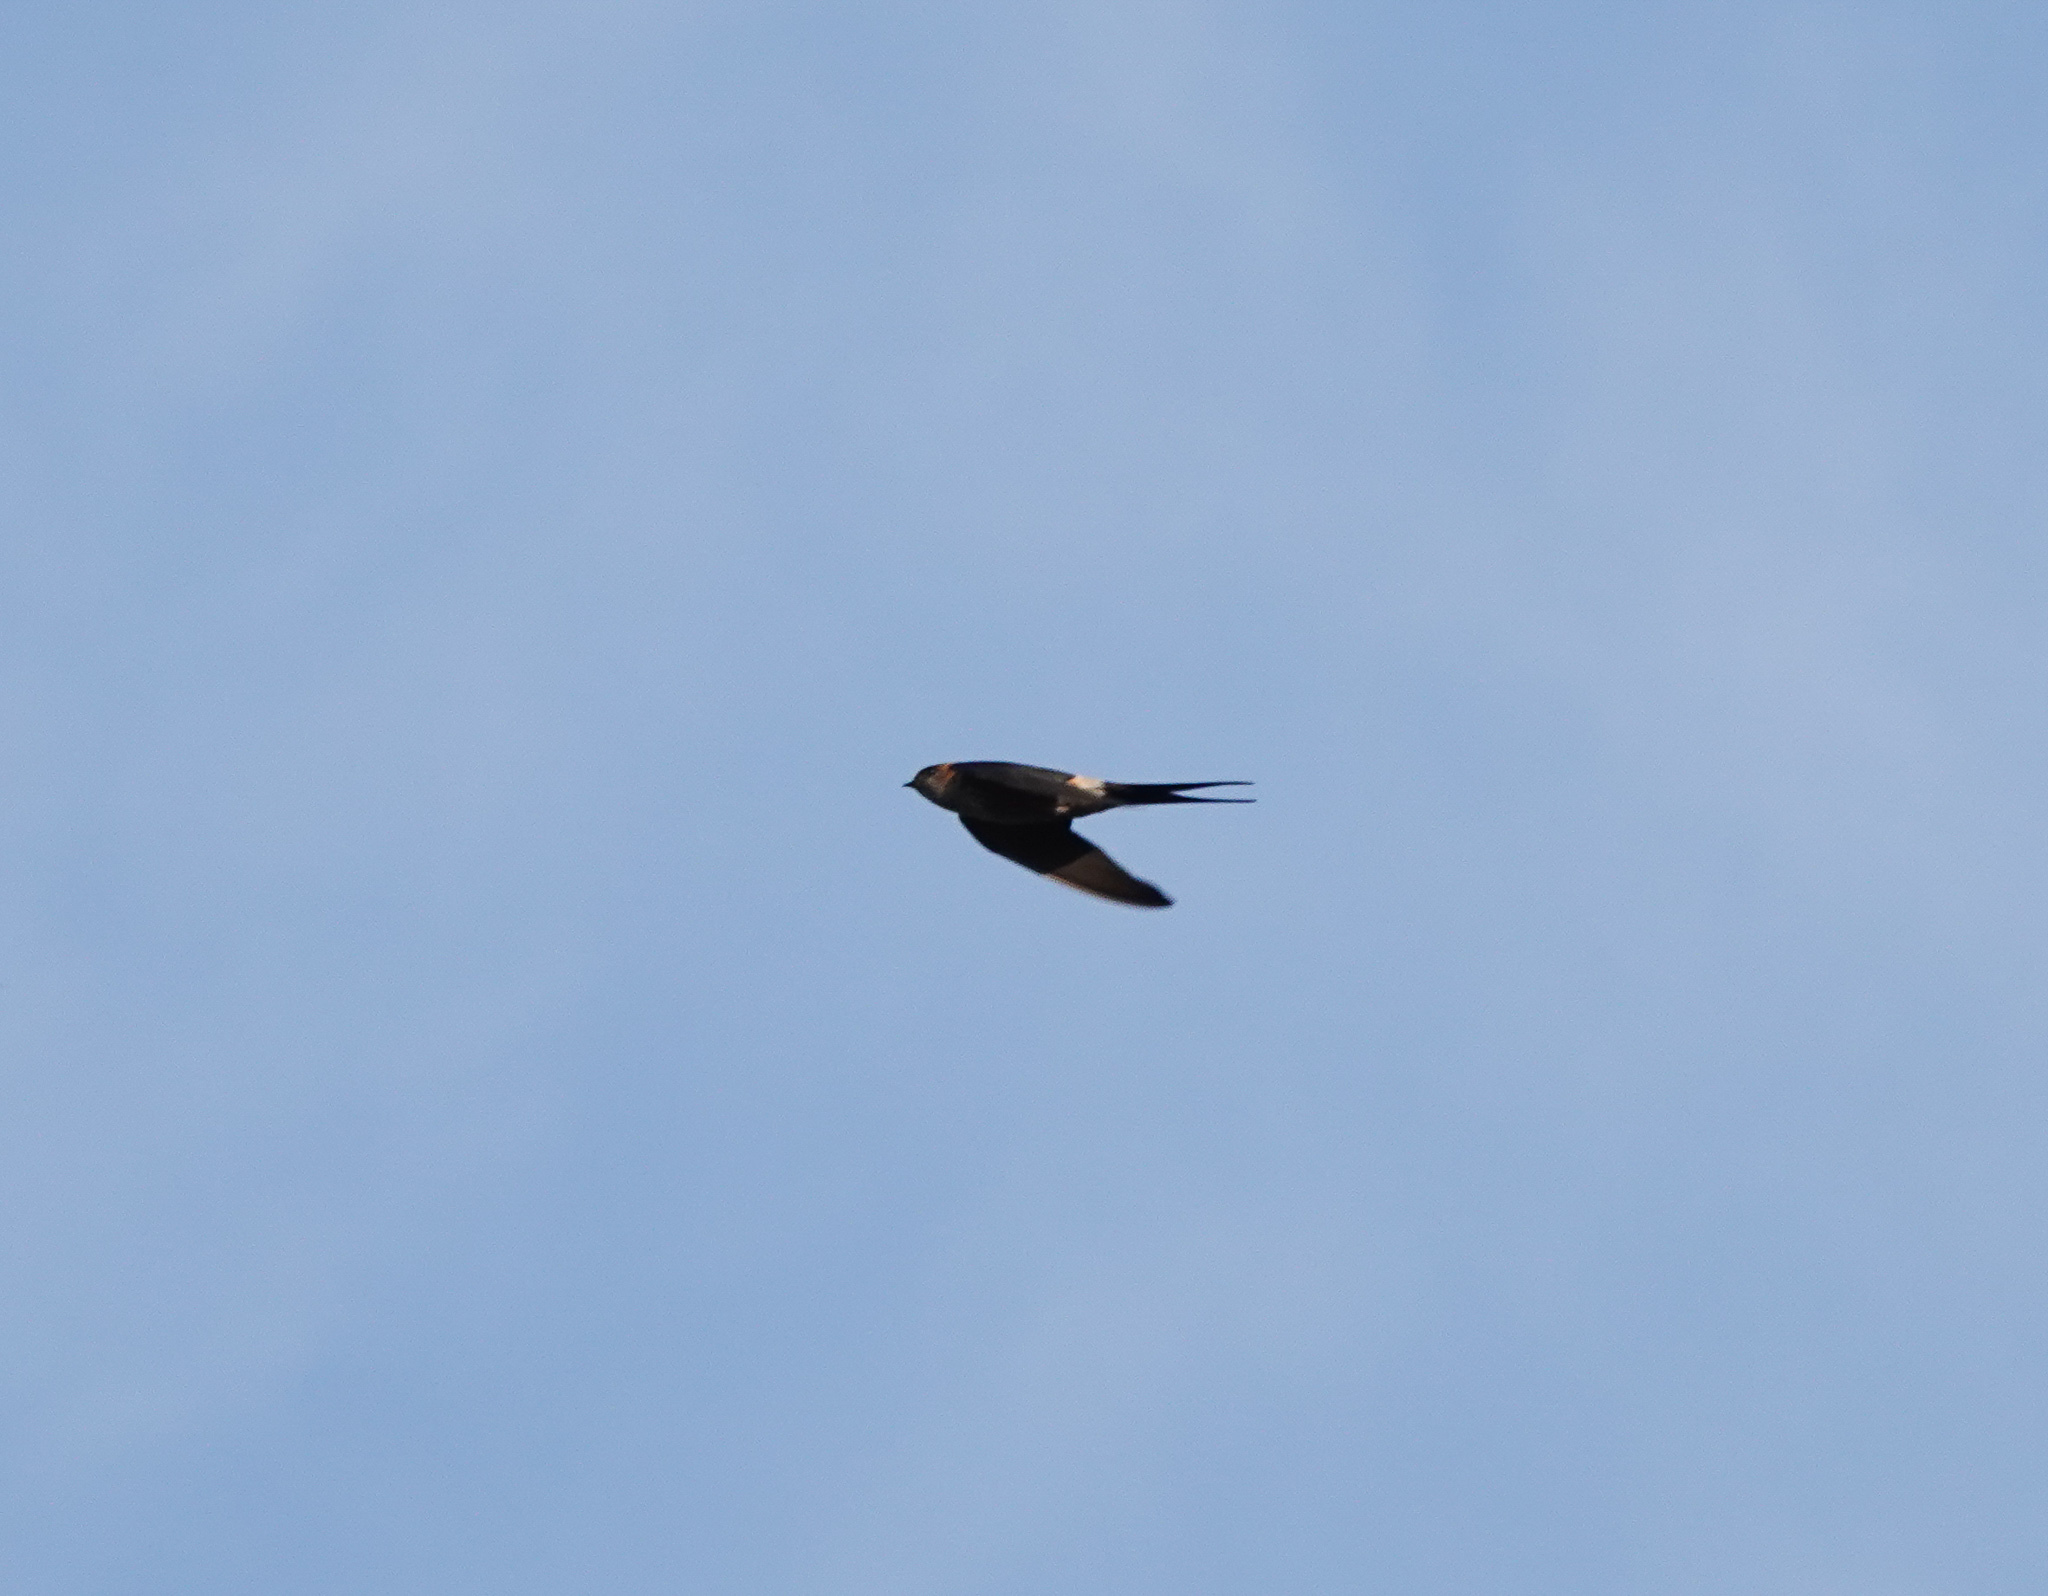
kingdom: Animalia
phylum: Chordata
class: Aves
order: Passeriformes
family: Hirundinidae
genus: Cecropis
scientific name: Cecropis daurica
